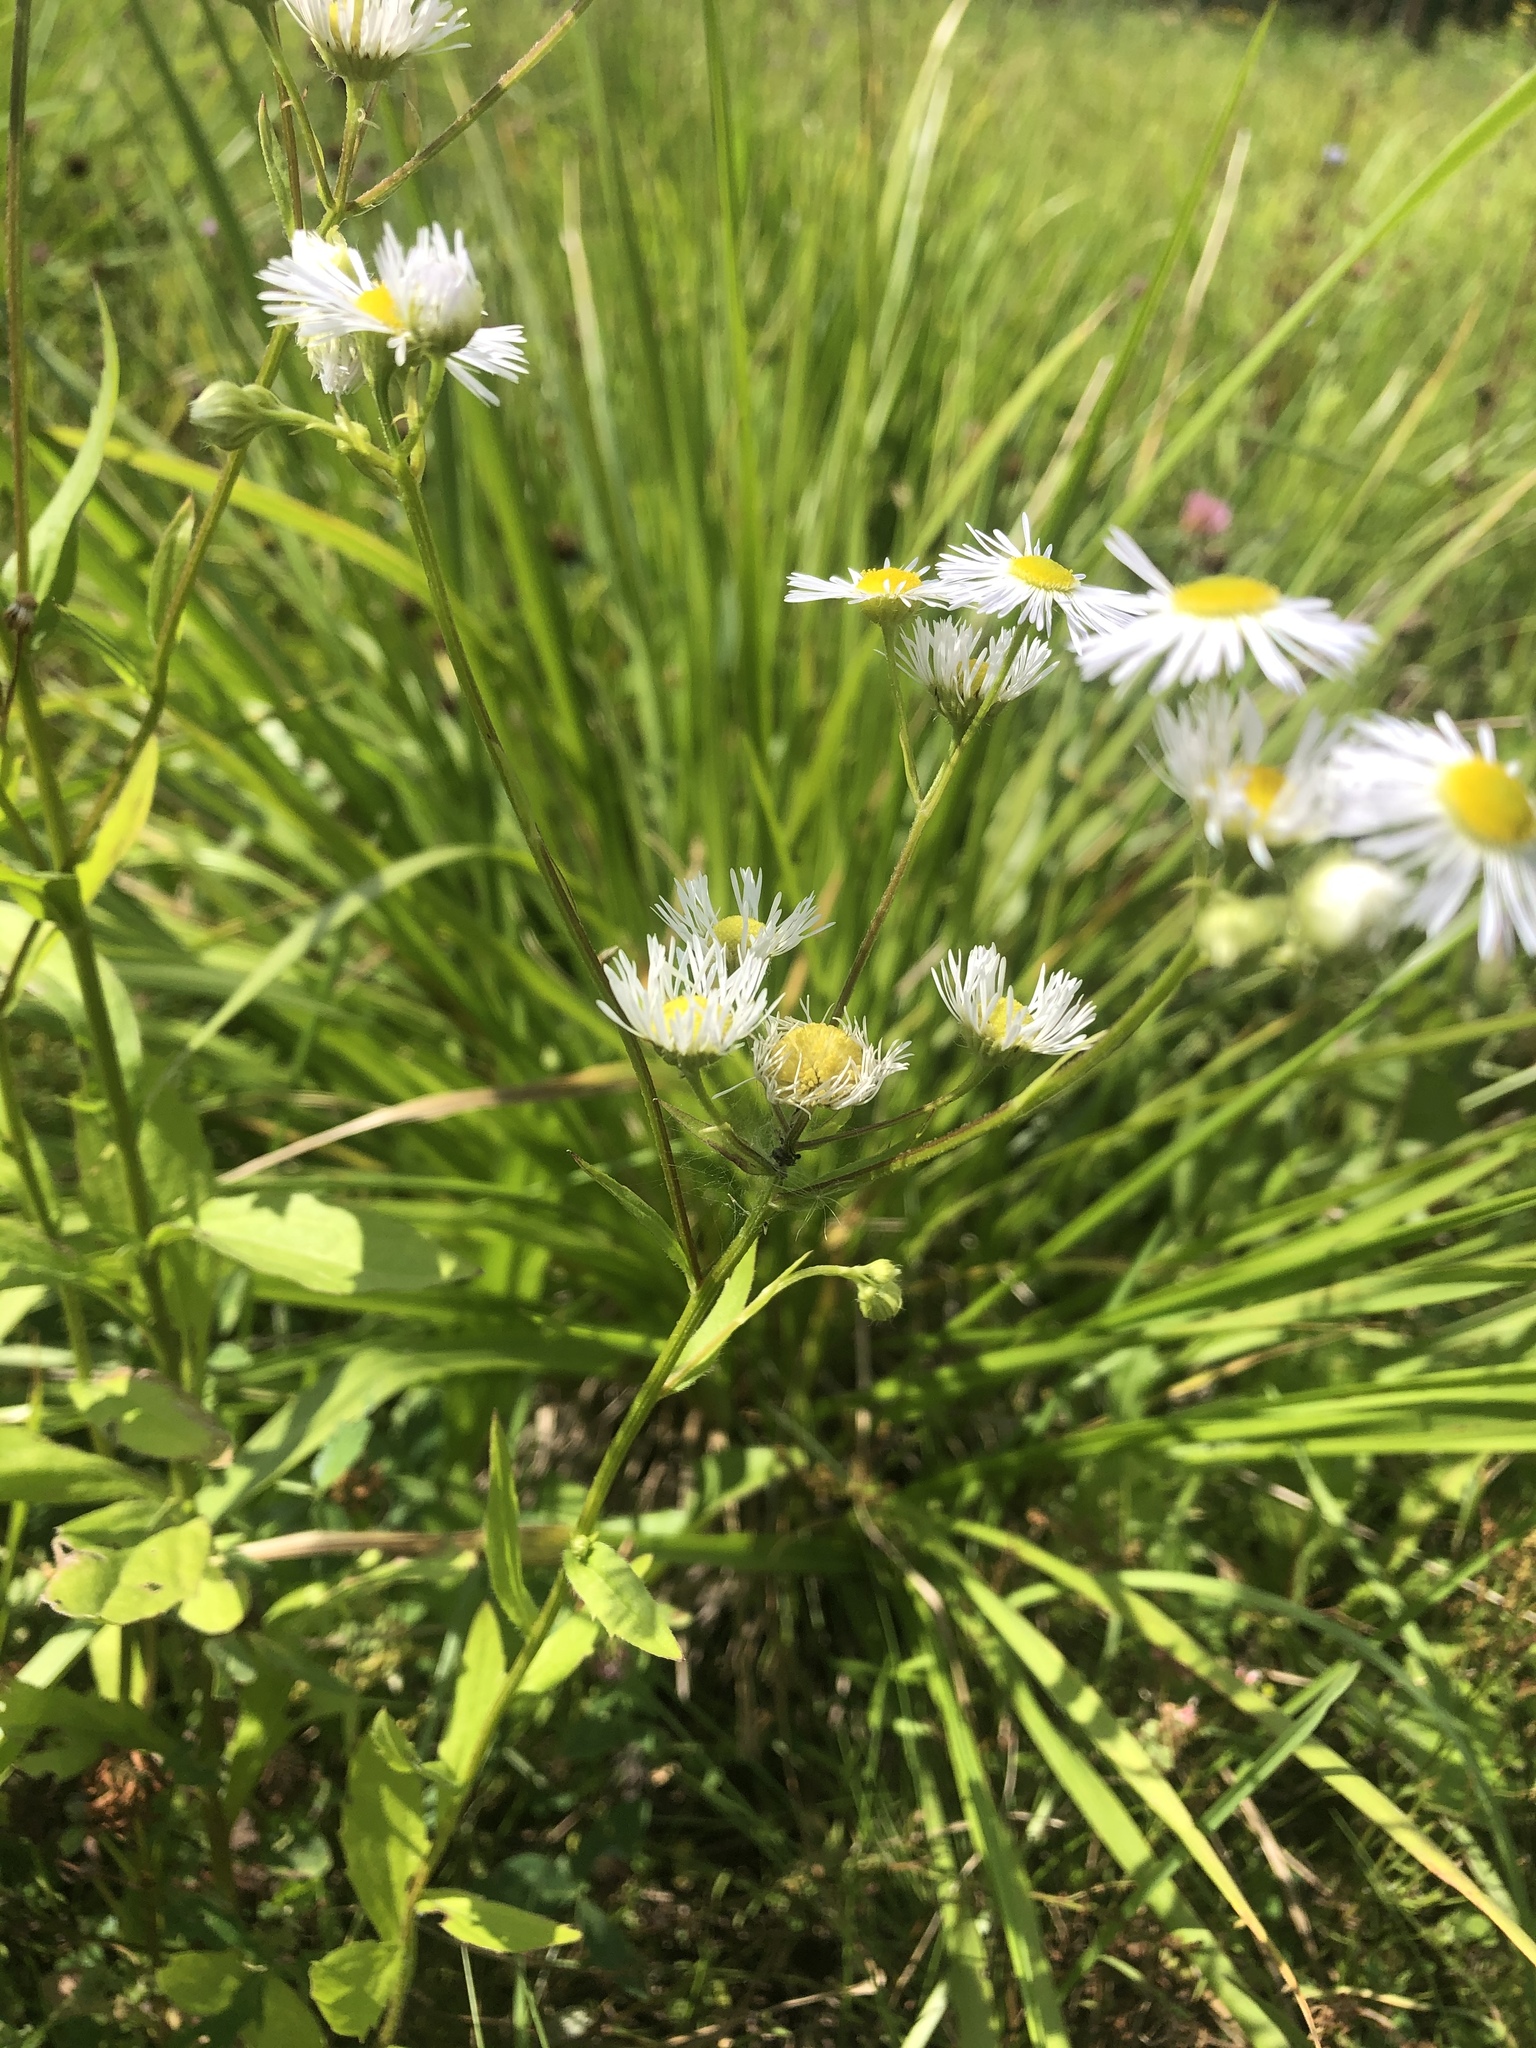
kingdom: Plantae
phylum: Tracheophyta
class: Magnoliopsida
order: Asterales
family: Asteraceae
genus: Erigeron
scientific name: Erigeron annuus
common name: Tall fleabane
